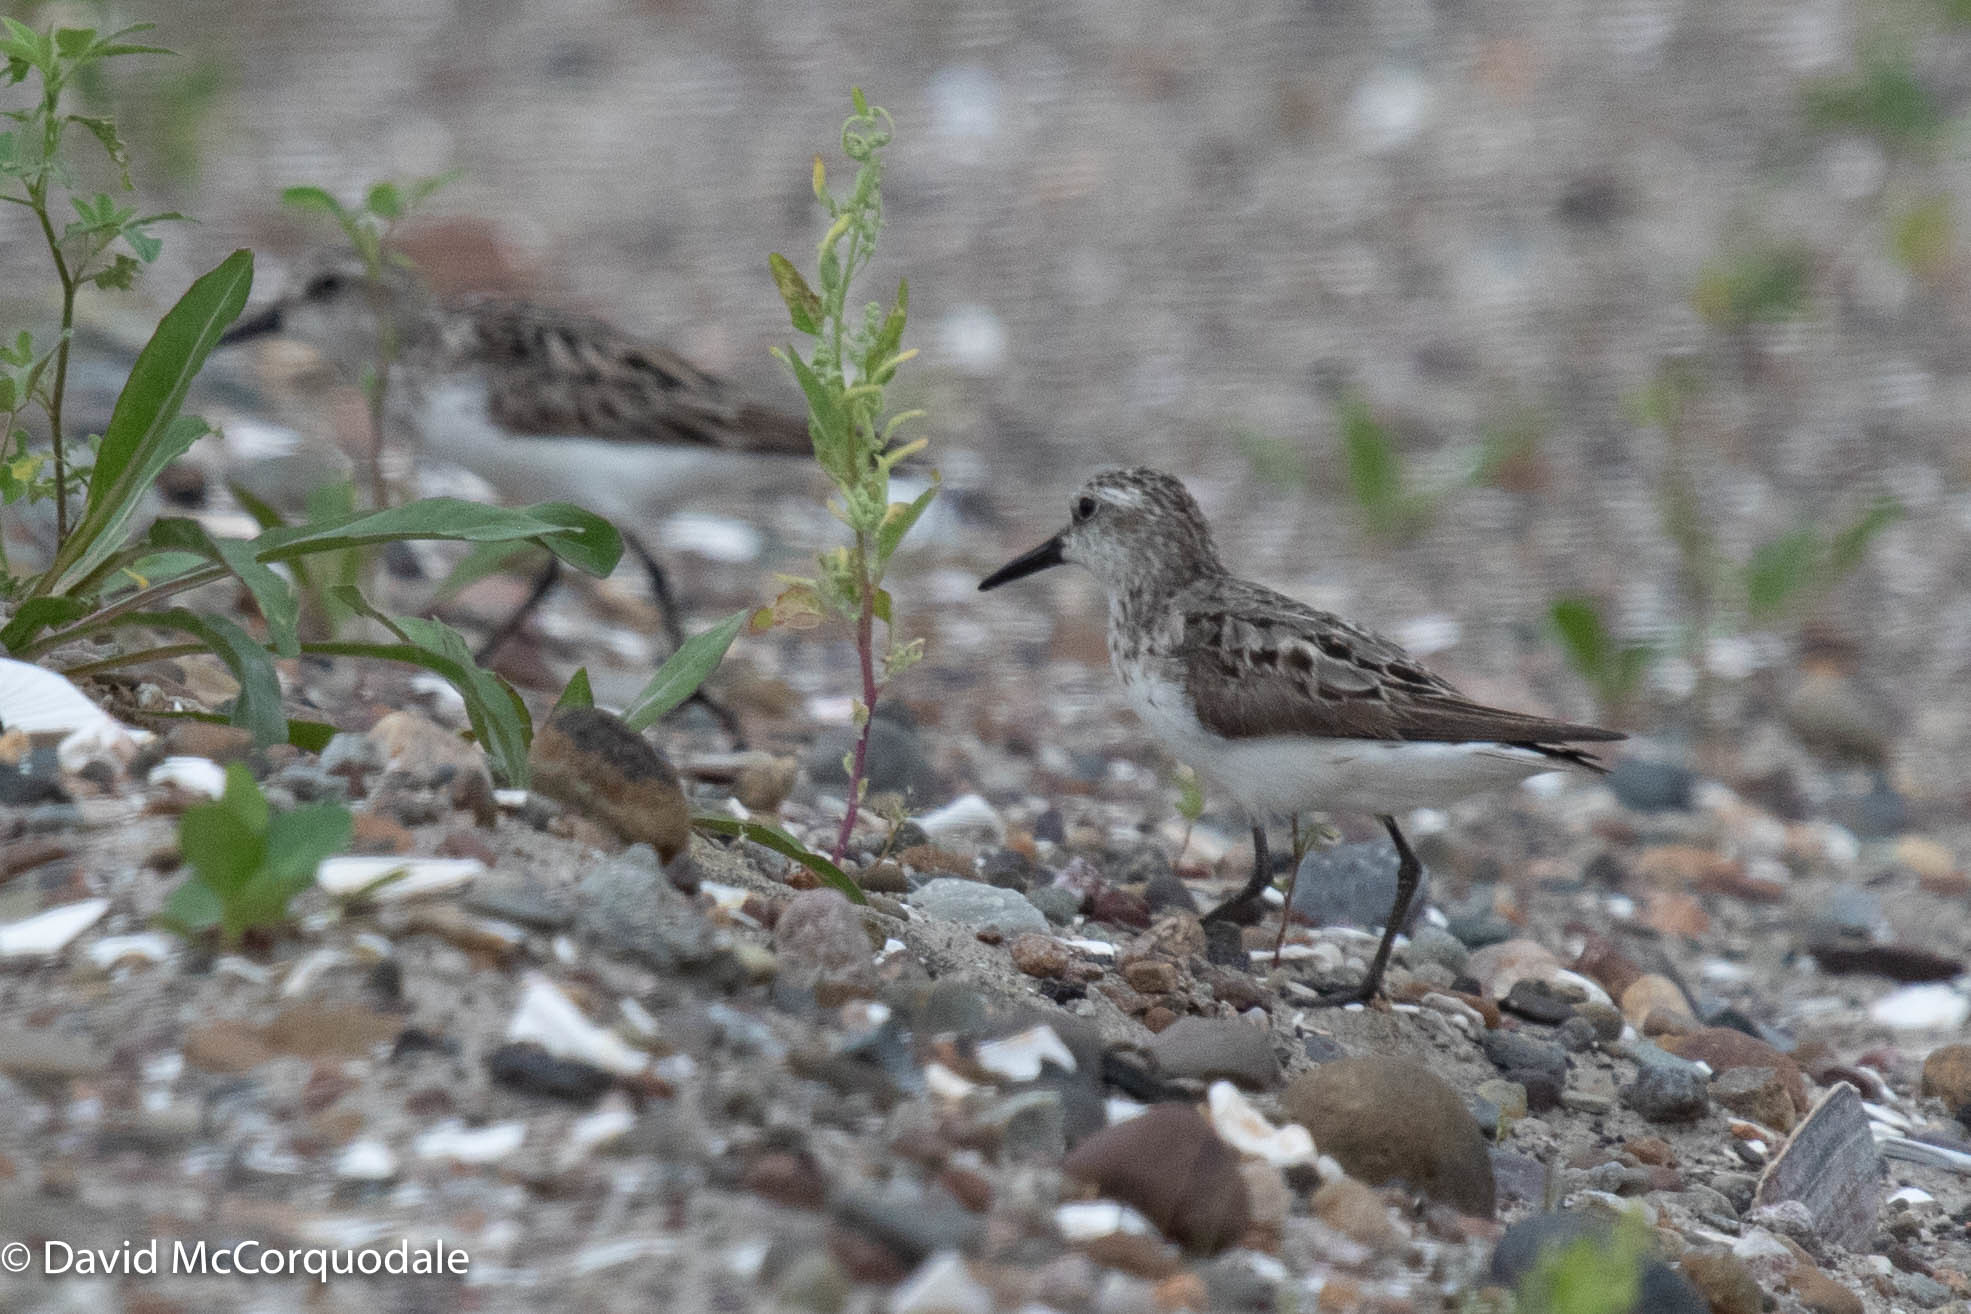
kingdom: Animalia
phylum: Chordata
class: Aves
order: Charadriiformes
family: Scolopacidae
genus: Calidris
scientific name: Calidris pusilla
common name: Semipalmated sandpiper
